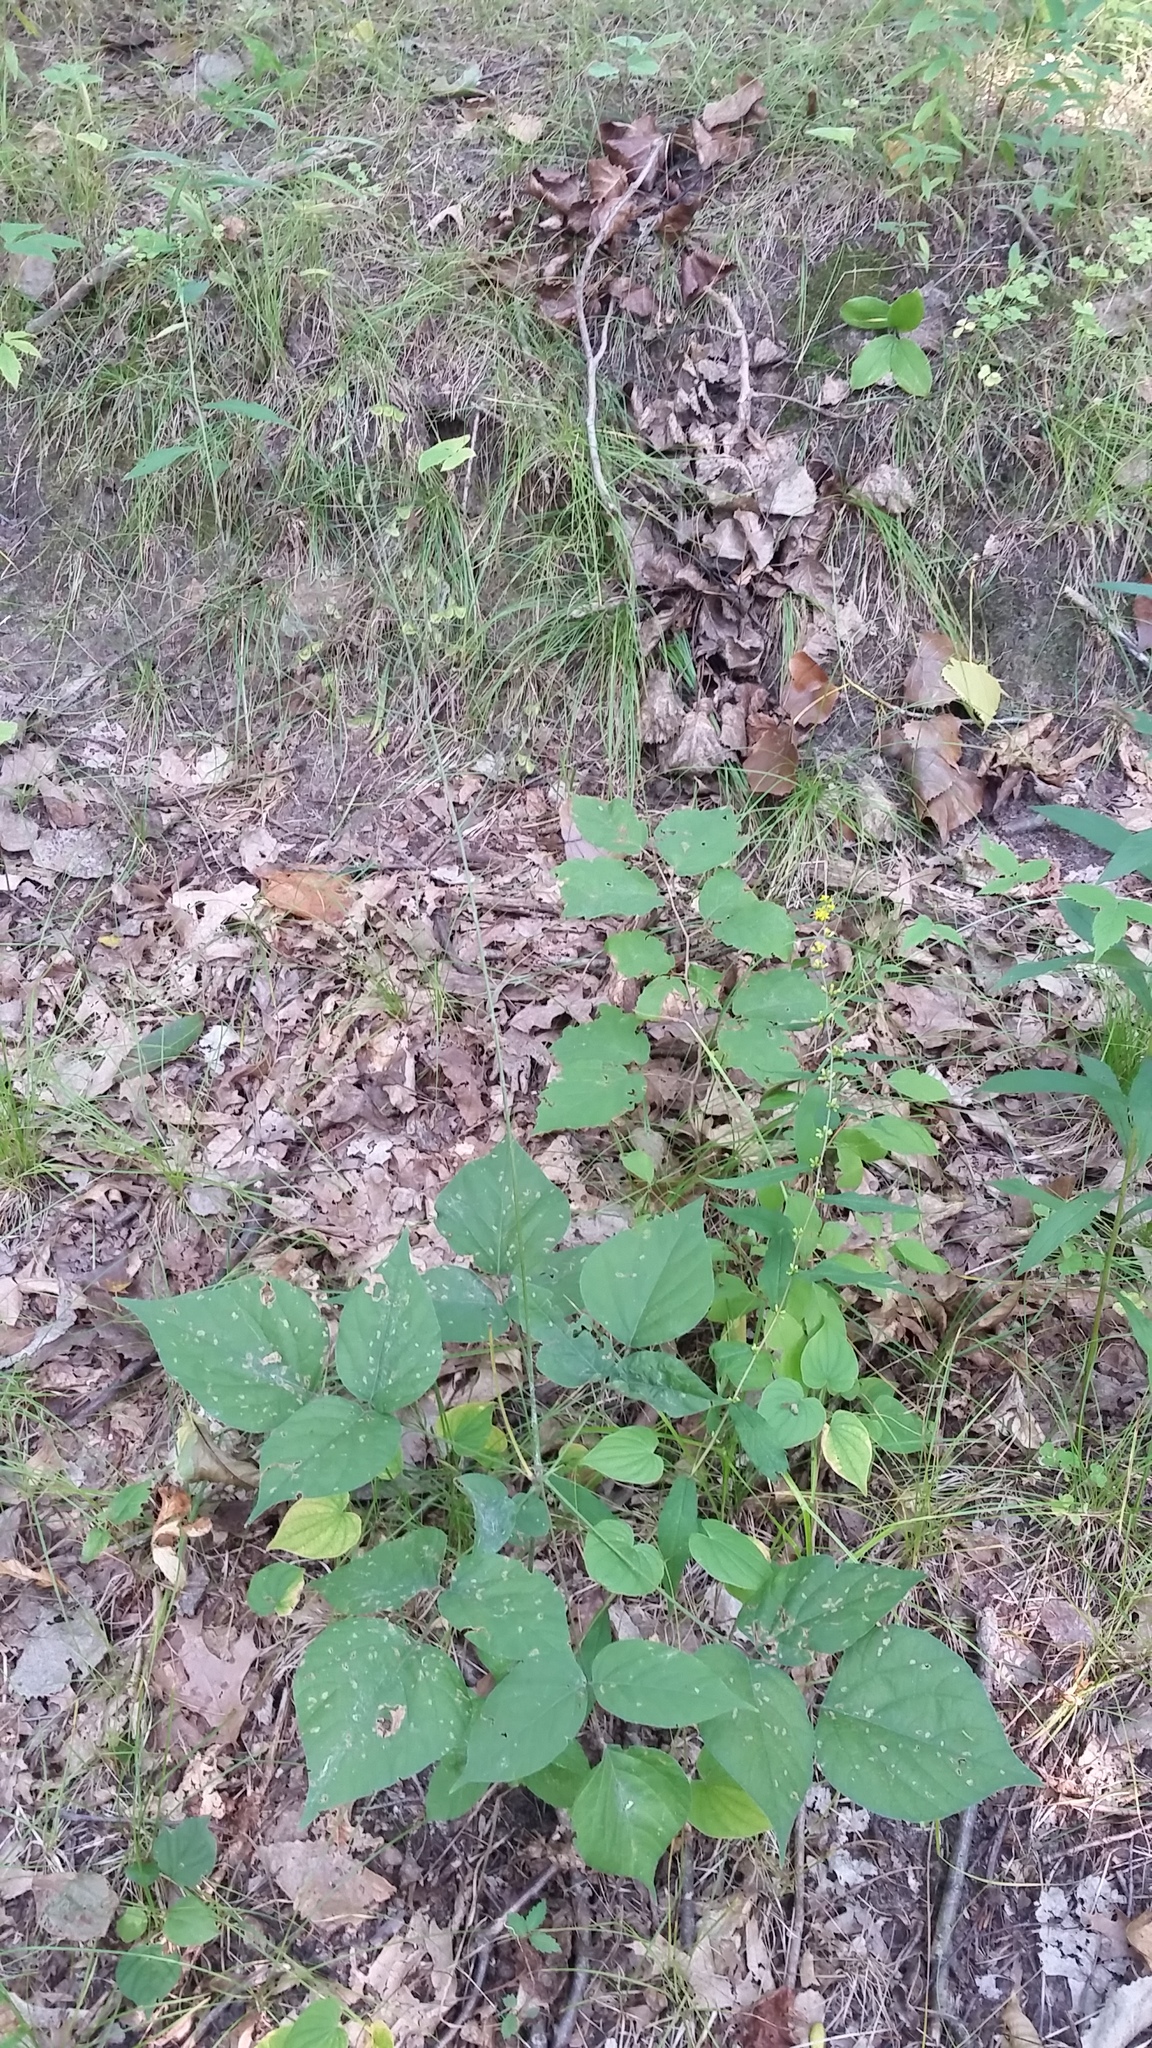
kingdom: Plantae
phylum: Tracheophyta
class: Magnoliopsida
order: Fabales
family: Fabaceae
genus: Hylodesmum
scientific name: Hylodesmum glutinosum
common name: Clustered-leaved tick-trefoil
